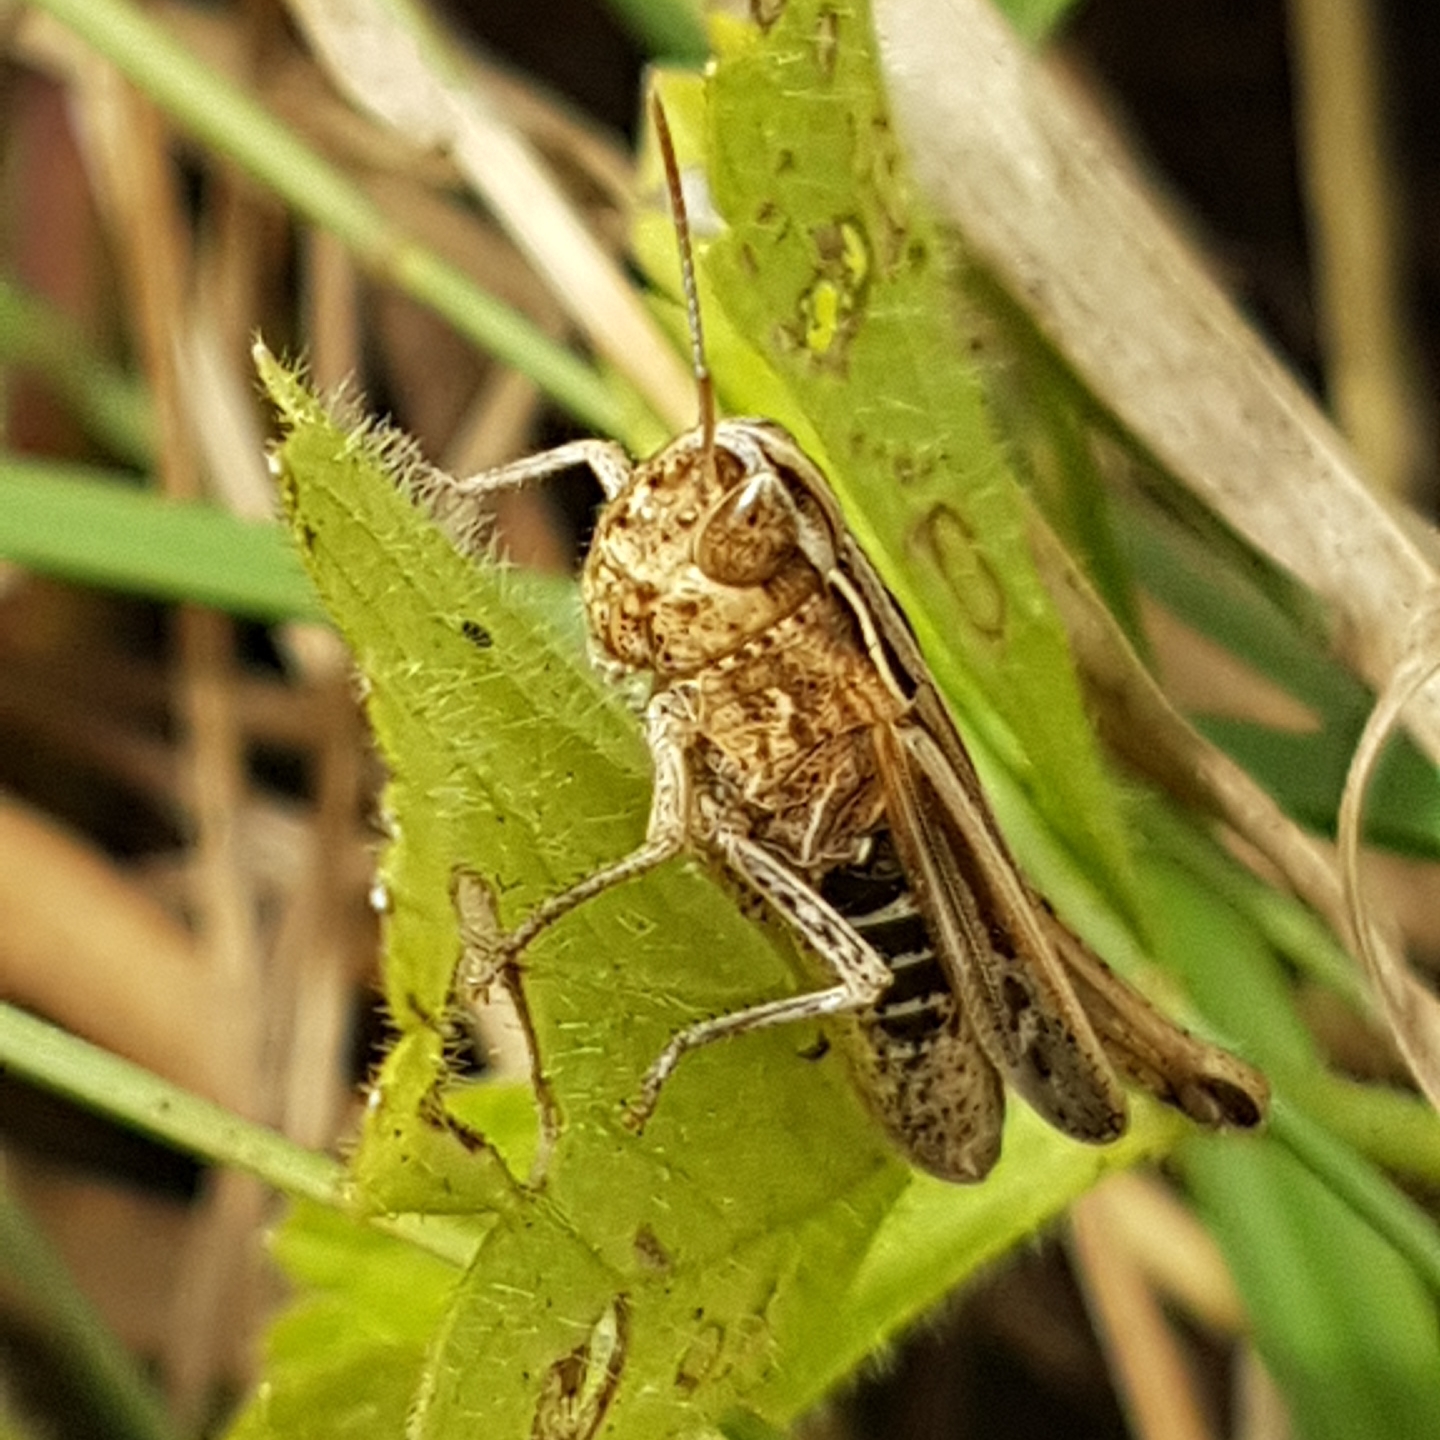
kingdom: Animalia
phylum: Arthropoda
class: Insecta
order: Orthoptera
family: Acrididae
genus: Omocestus
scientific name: Omocestus panteli
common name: Pantel's grasshopper
